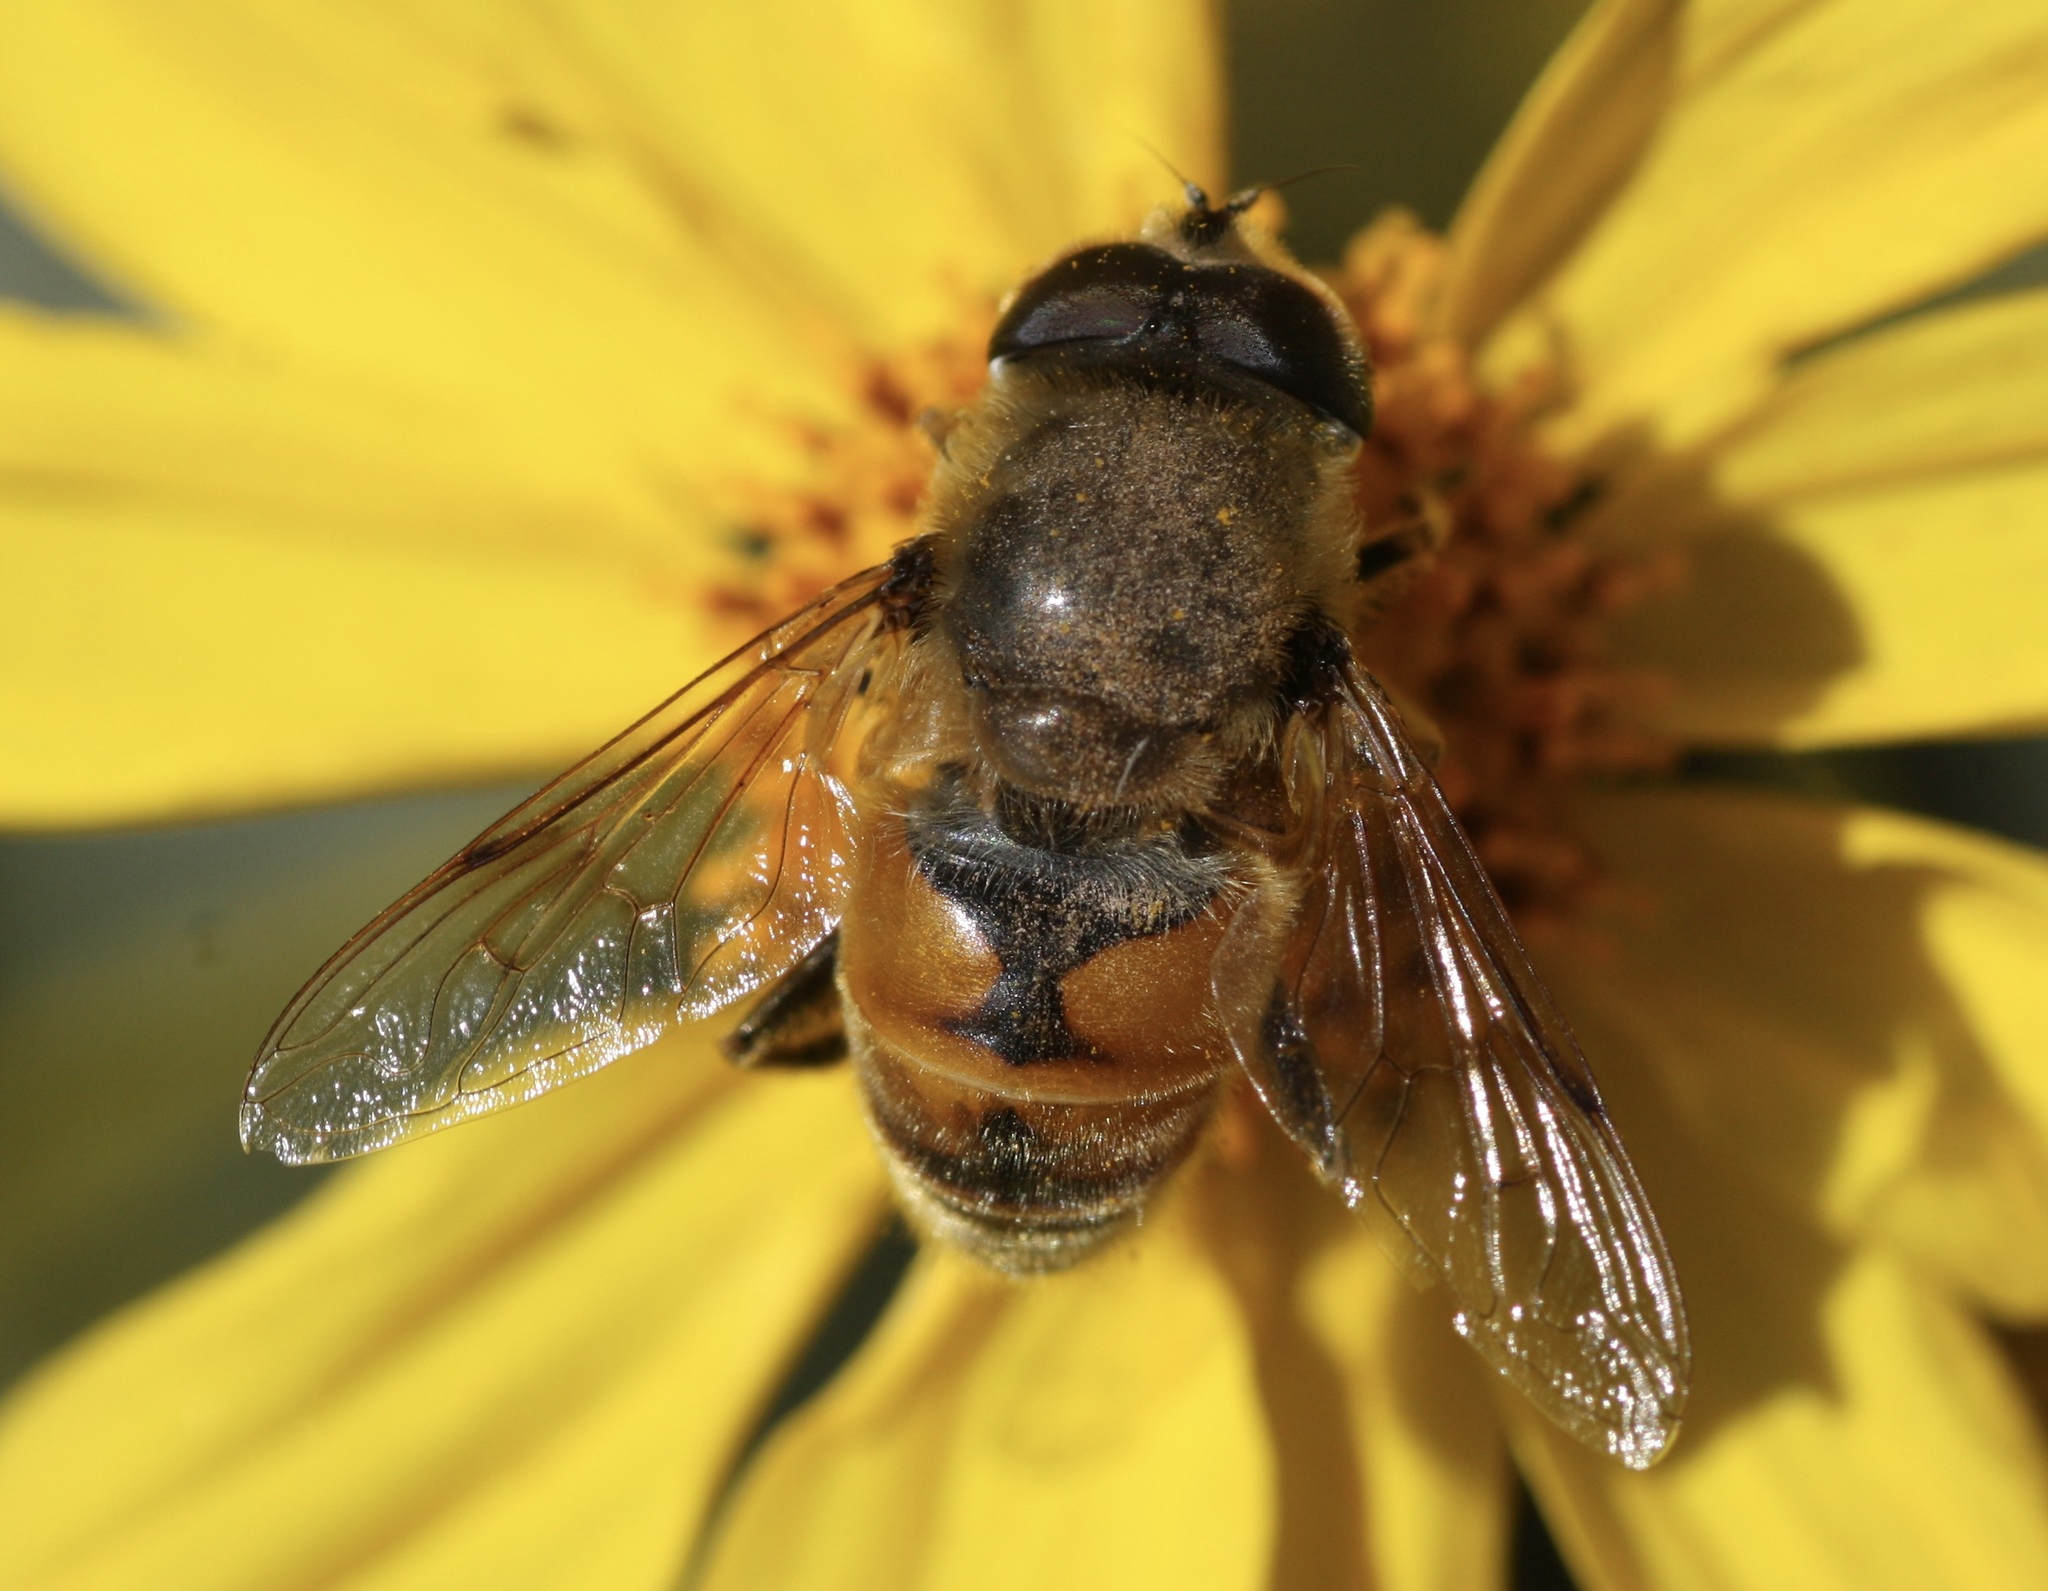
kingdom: Animalia
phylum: Arthropoda
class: Insecta
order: Diptera
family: Syrphidae
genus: Eristalis
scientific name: Eristalis tenax
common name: Drone fly
